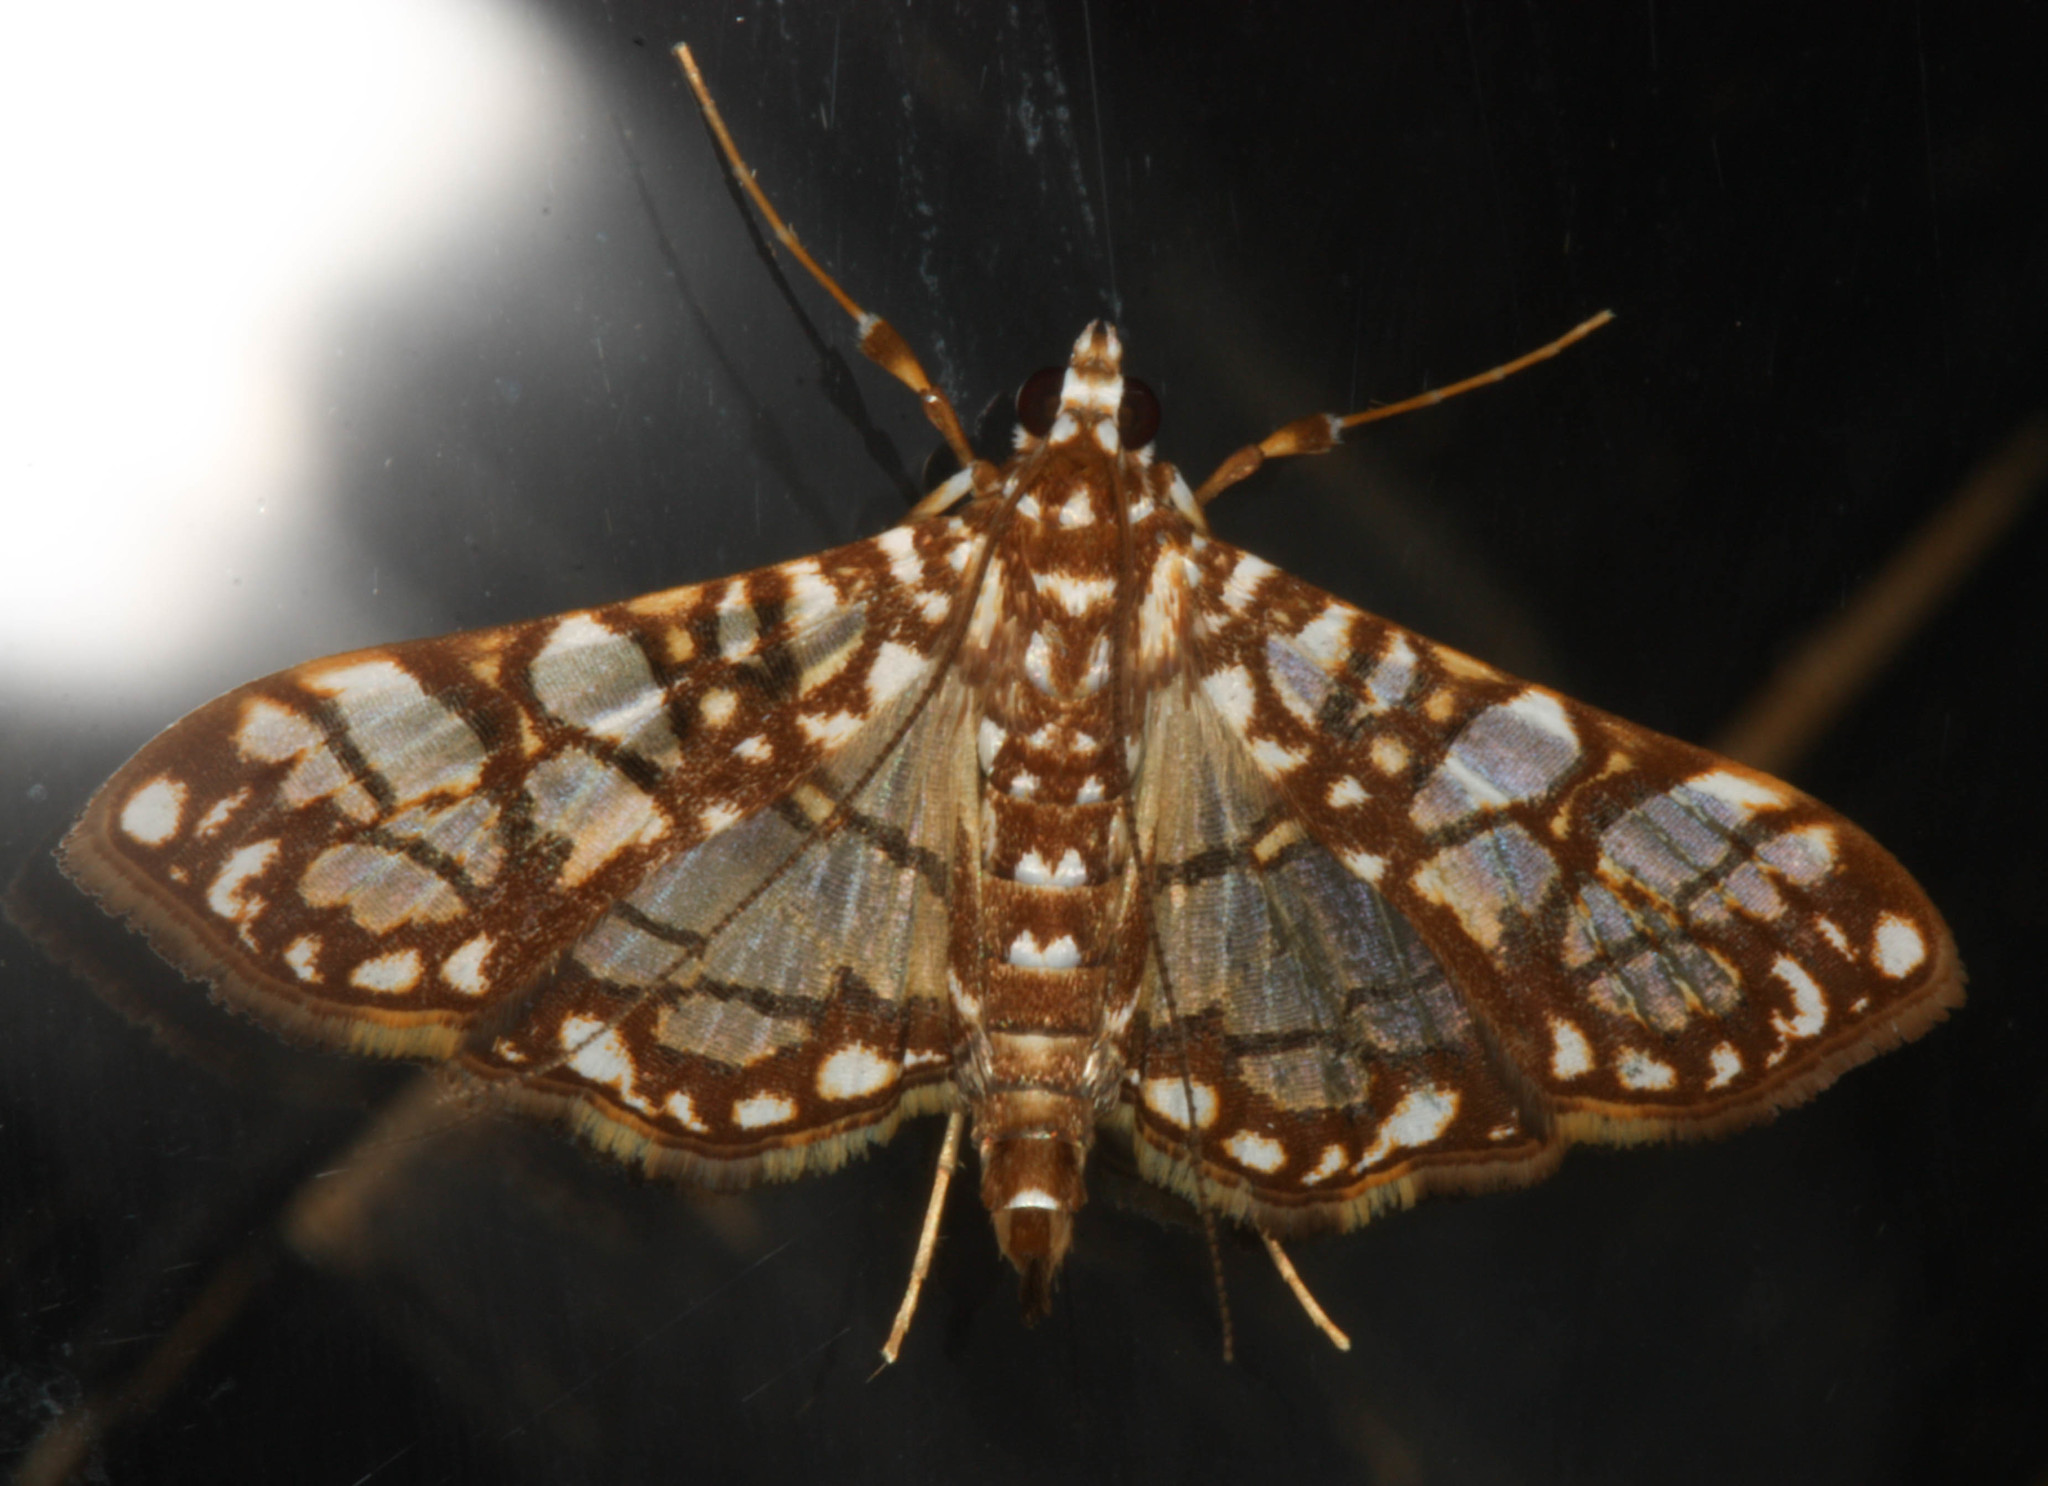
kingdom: Animalia
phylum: Arthropoda
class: Insecta
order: Lepidoptera
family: Crambidae
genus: Synclera
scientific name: Synclera traducalis
